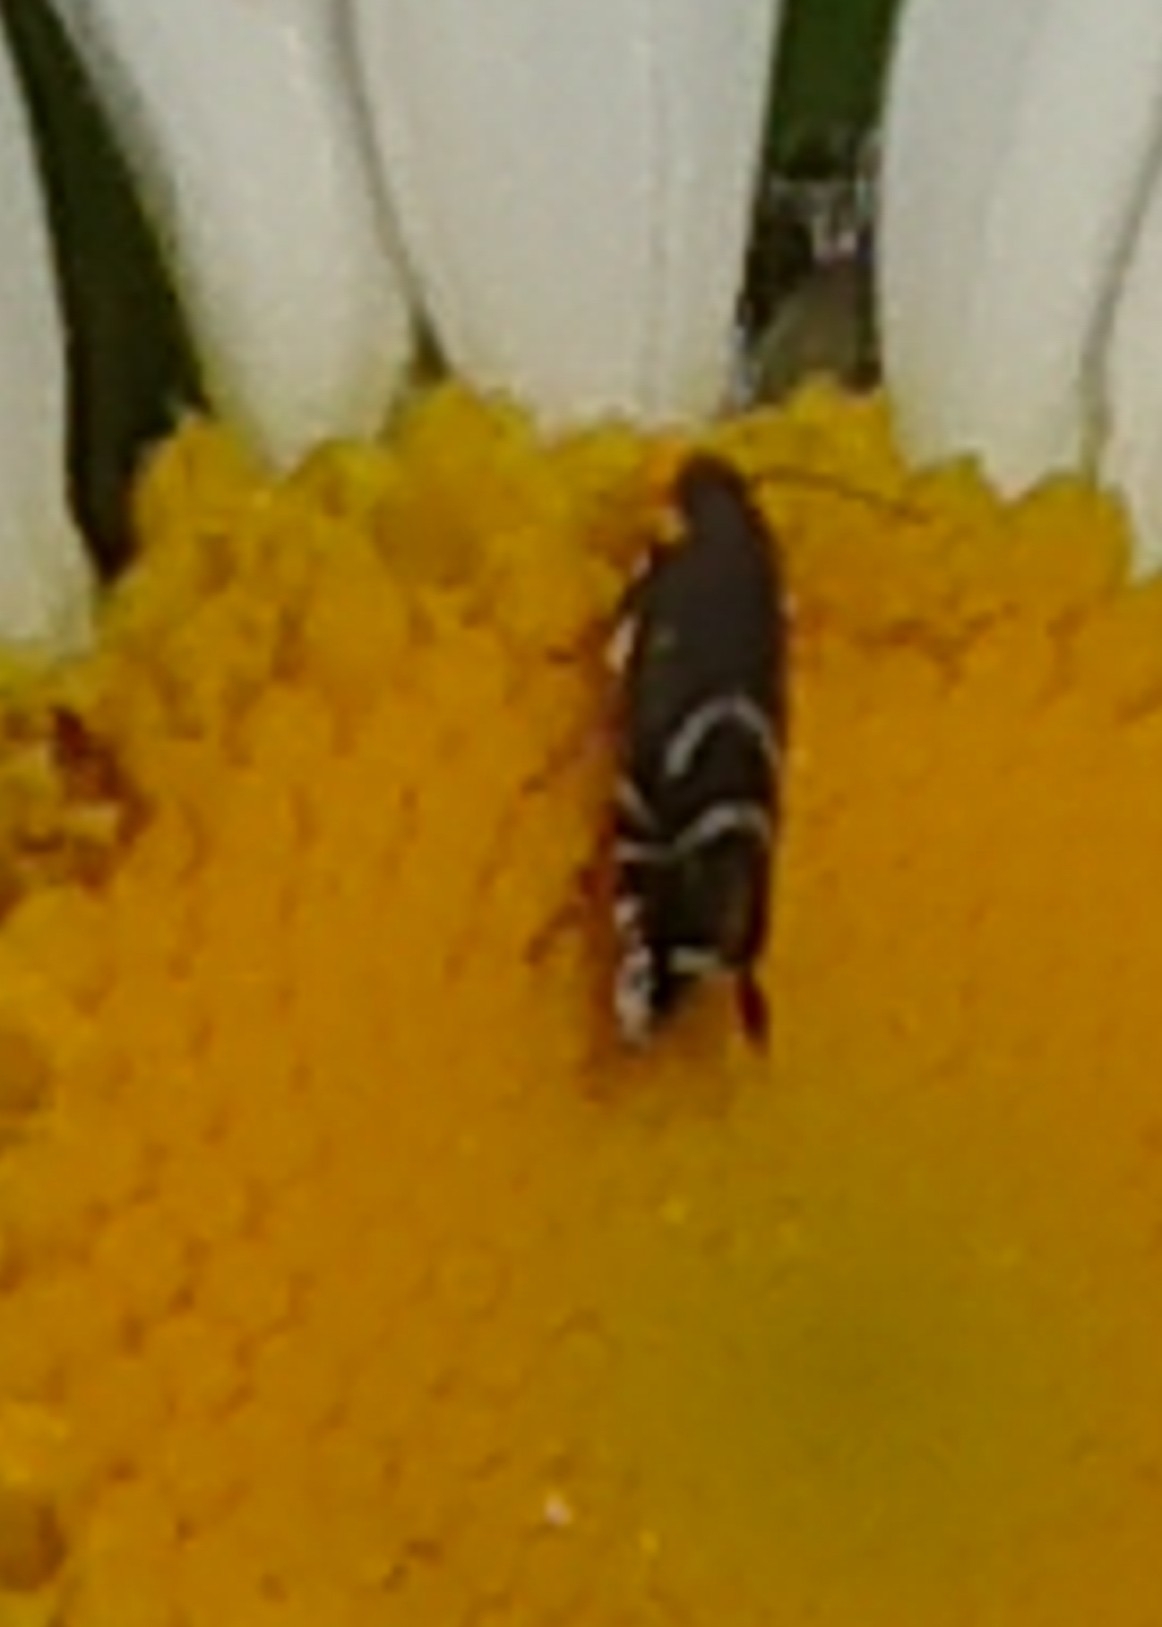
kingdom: Animalia
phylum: Arthropoda
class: Insecta
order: Lepidoptera
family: Glyphipterigidae
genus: Glyphipterix
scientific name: Glyphipterix simpliciella
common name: Cocksfoot moth
